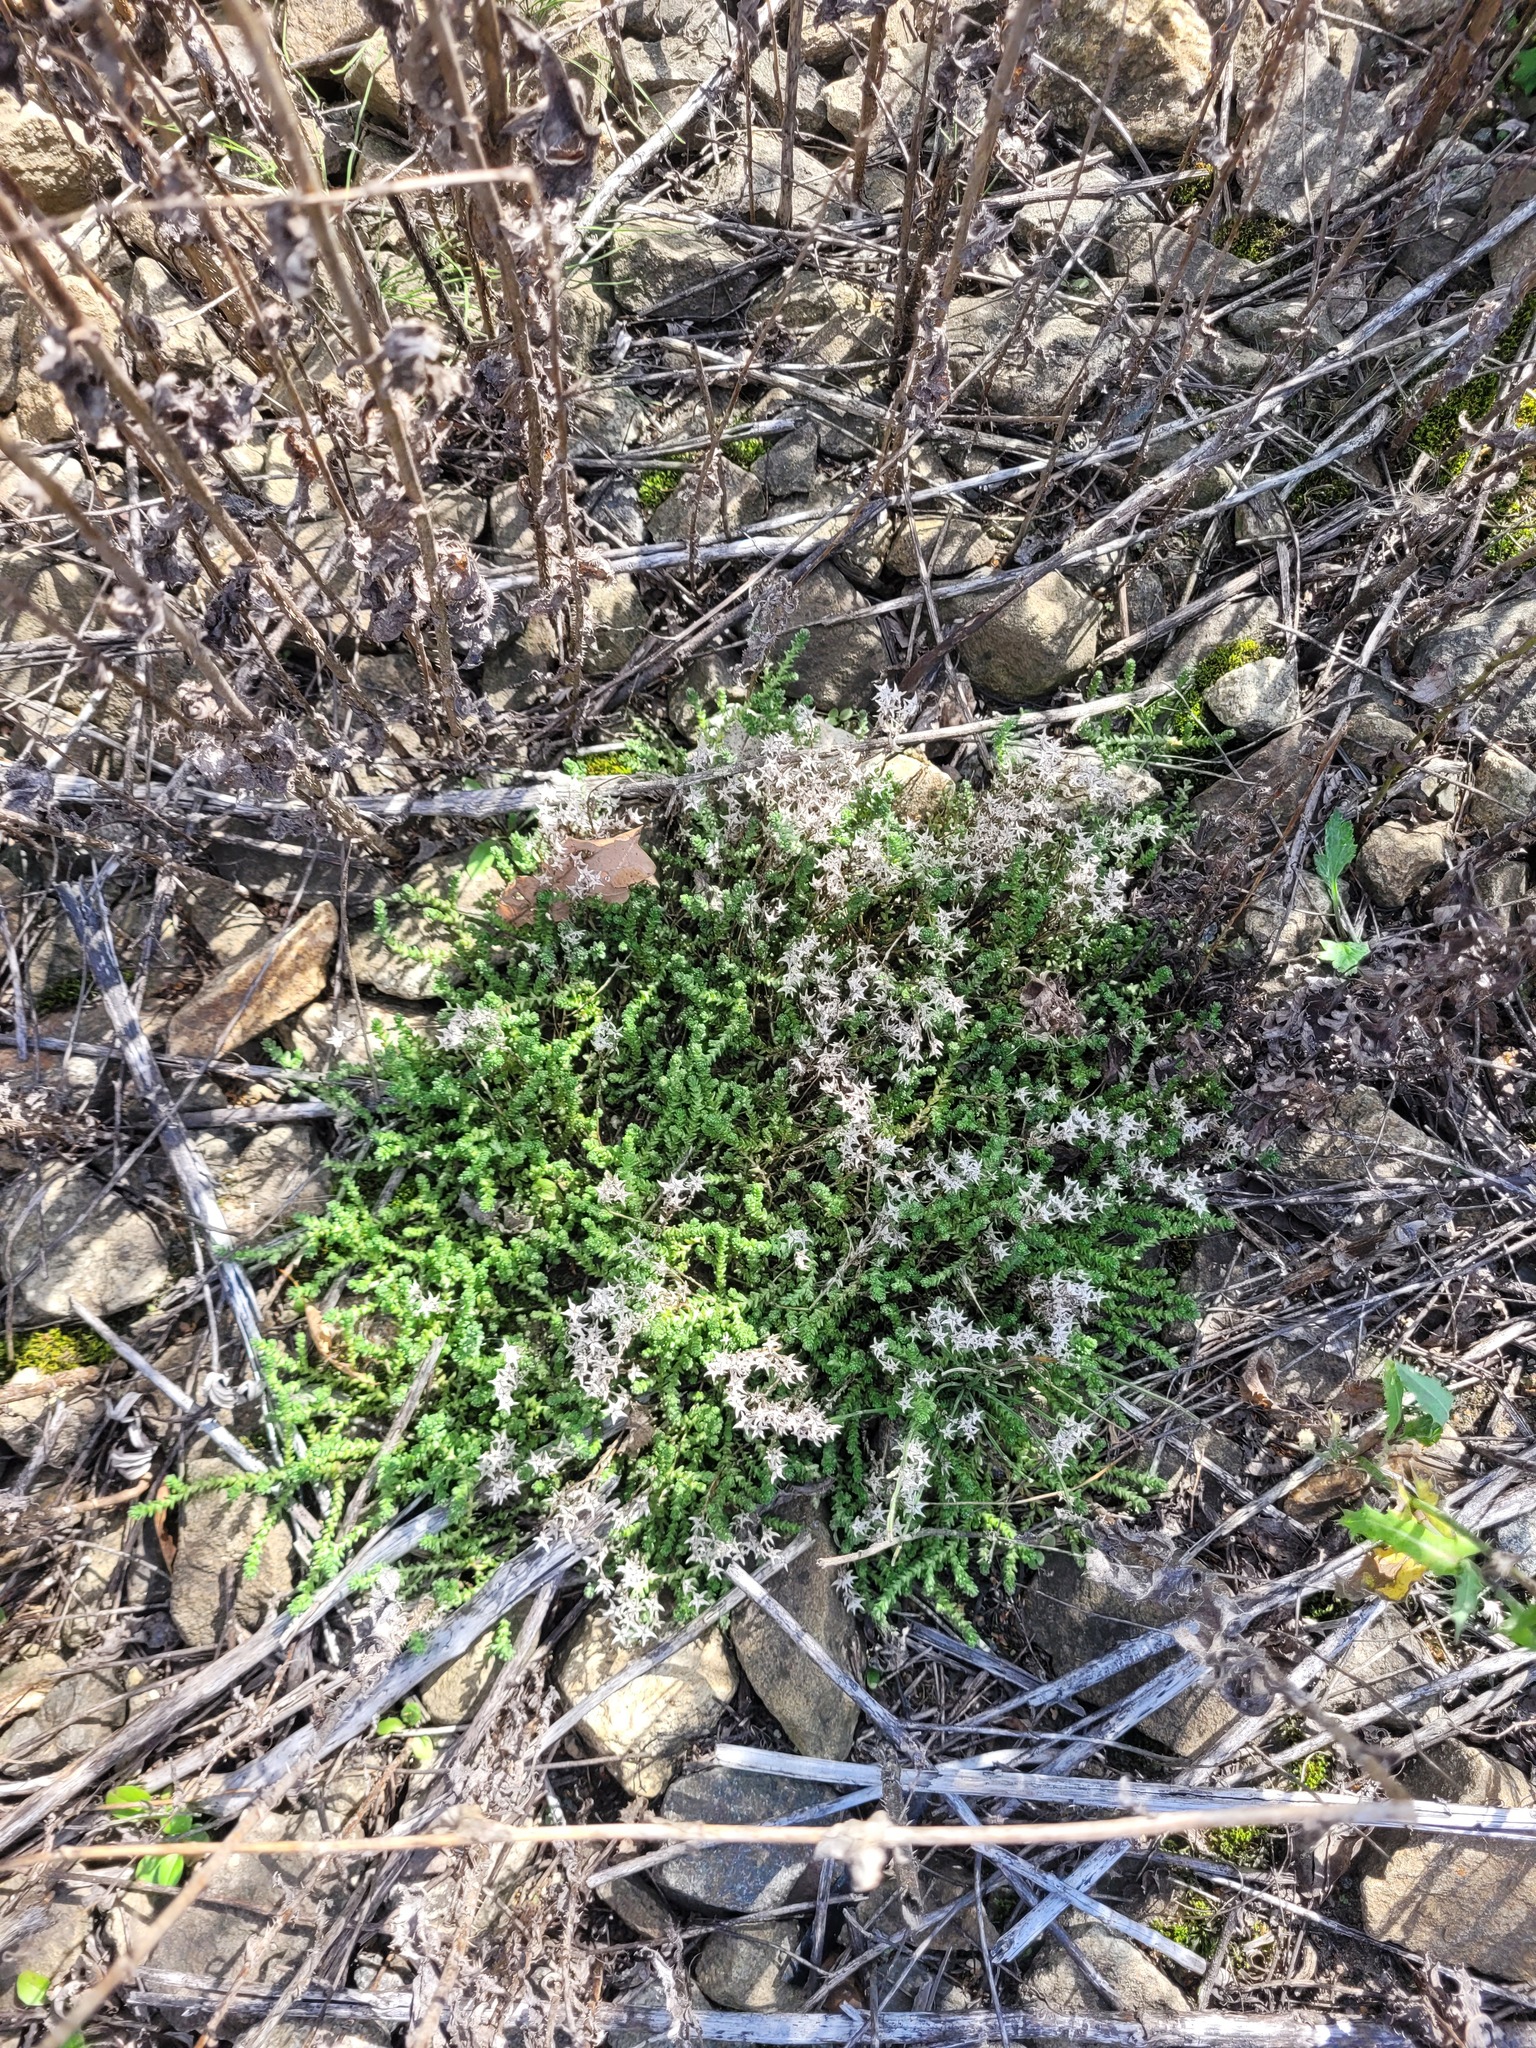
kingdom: Plantae
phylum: Tracheophyta
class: Magnoliopsida
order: Saxifragales
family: Crassulaceae
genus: Sedum
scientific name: Sedum acre
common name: Biting stonecrop
